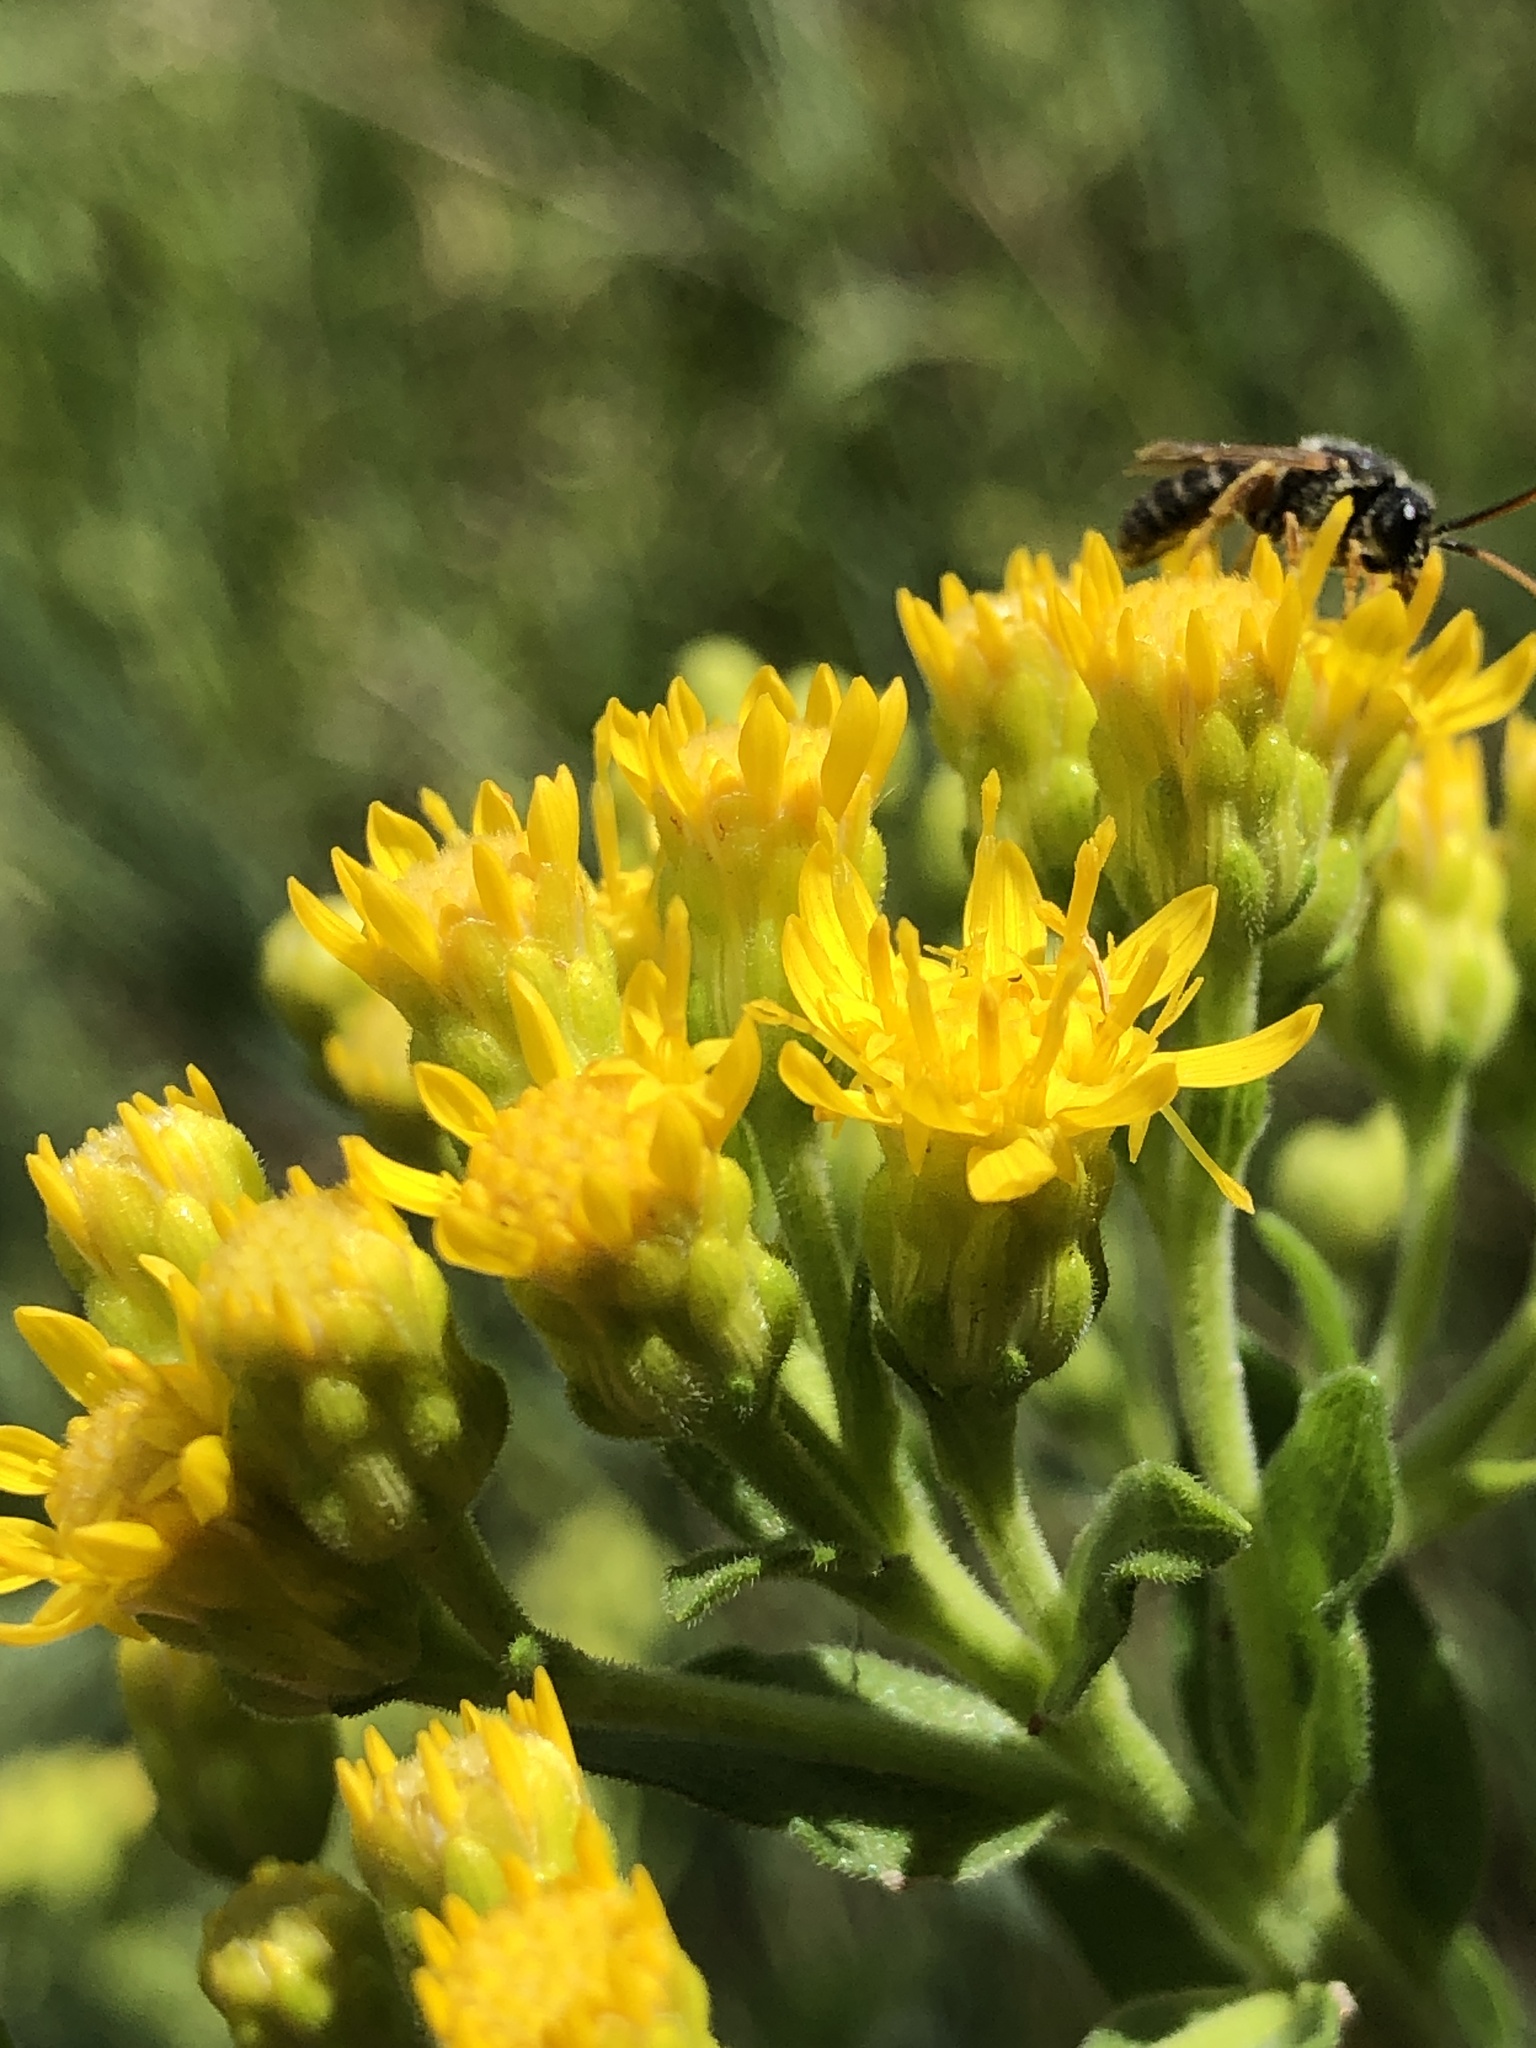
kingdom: Plantae
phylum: Tracheophyta
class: Magnoliopsida
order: Asterales
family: Asteraceae
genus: Solidago
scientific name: Solidago rigida
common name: Rigid goldenrod
